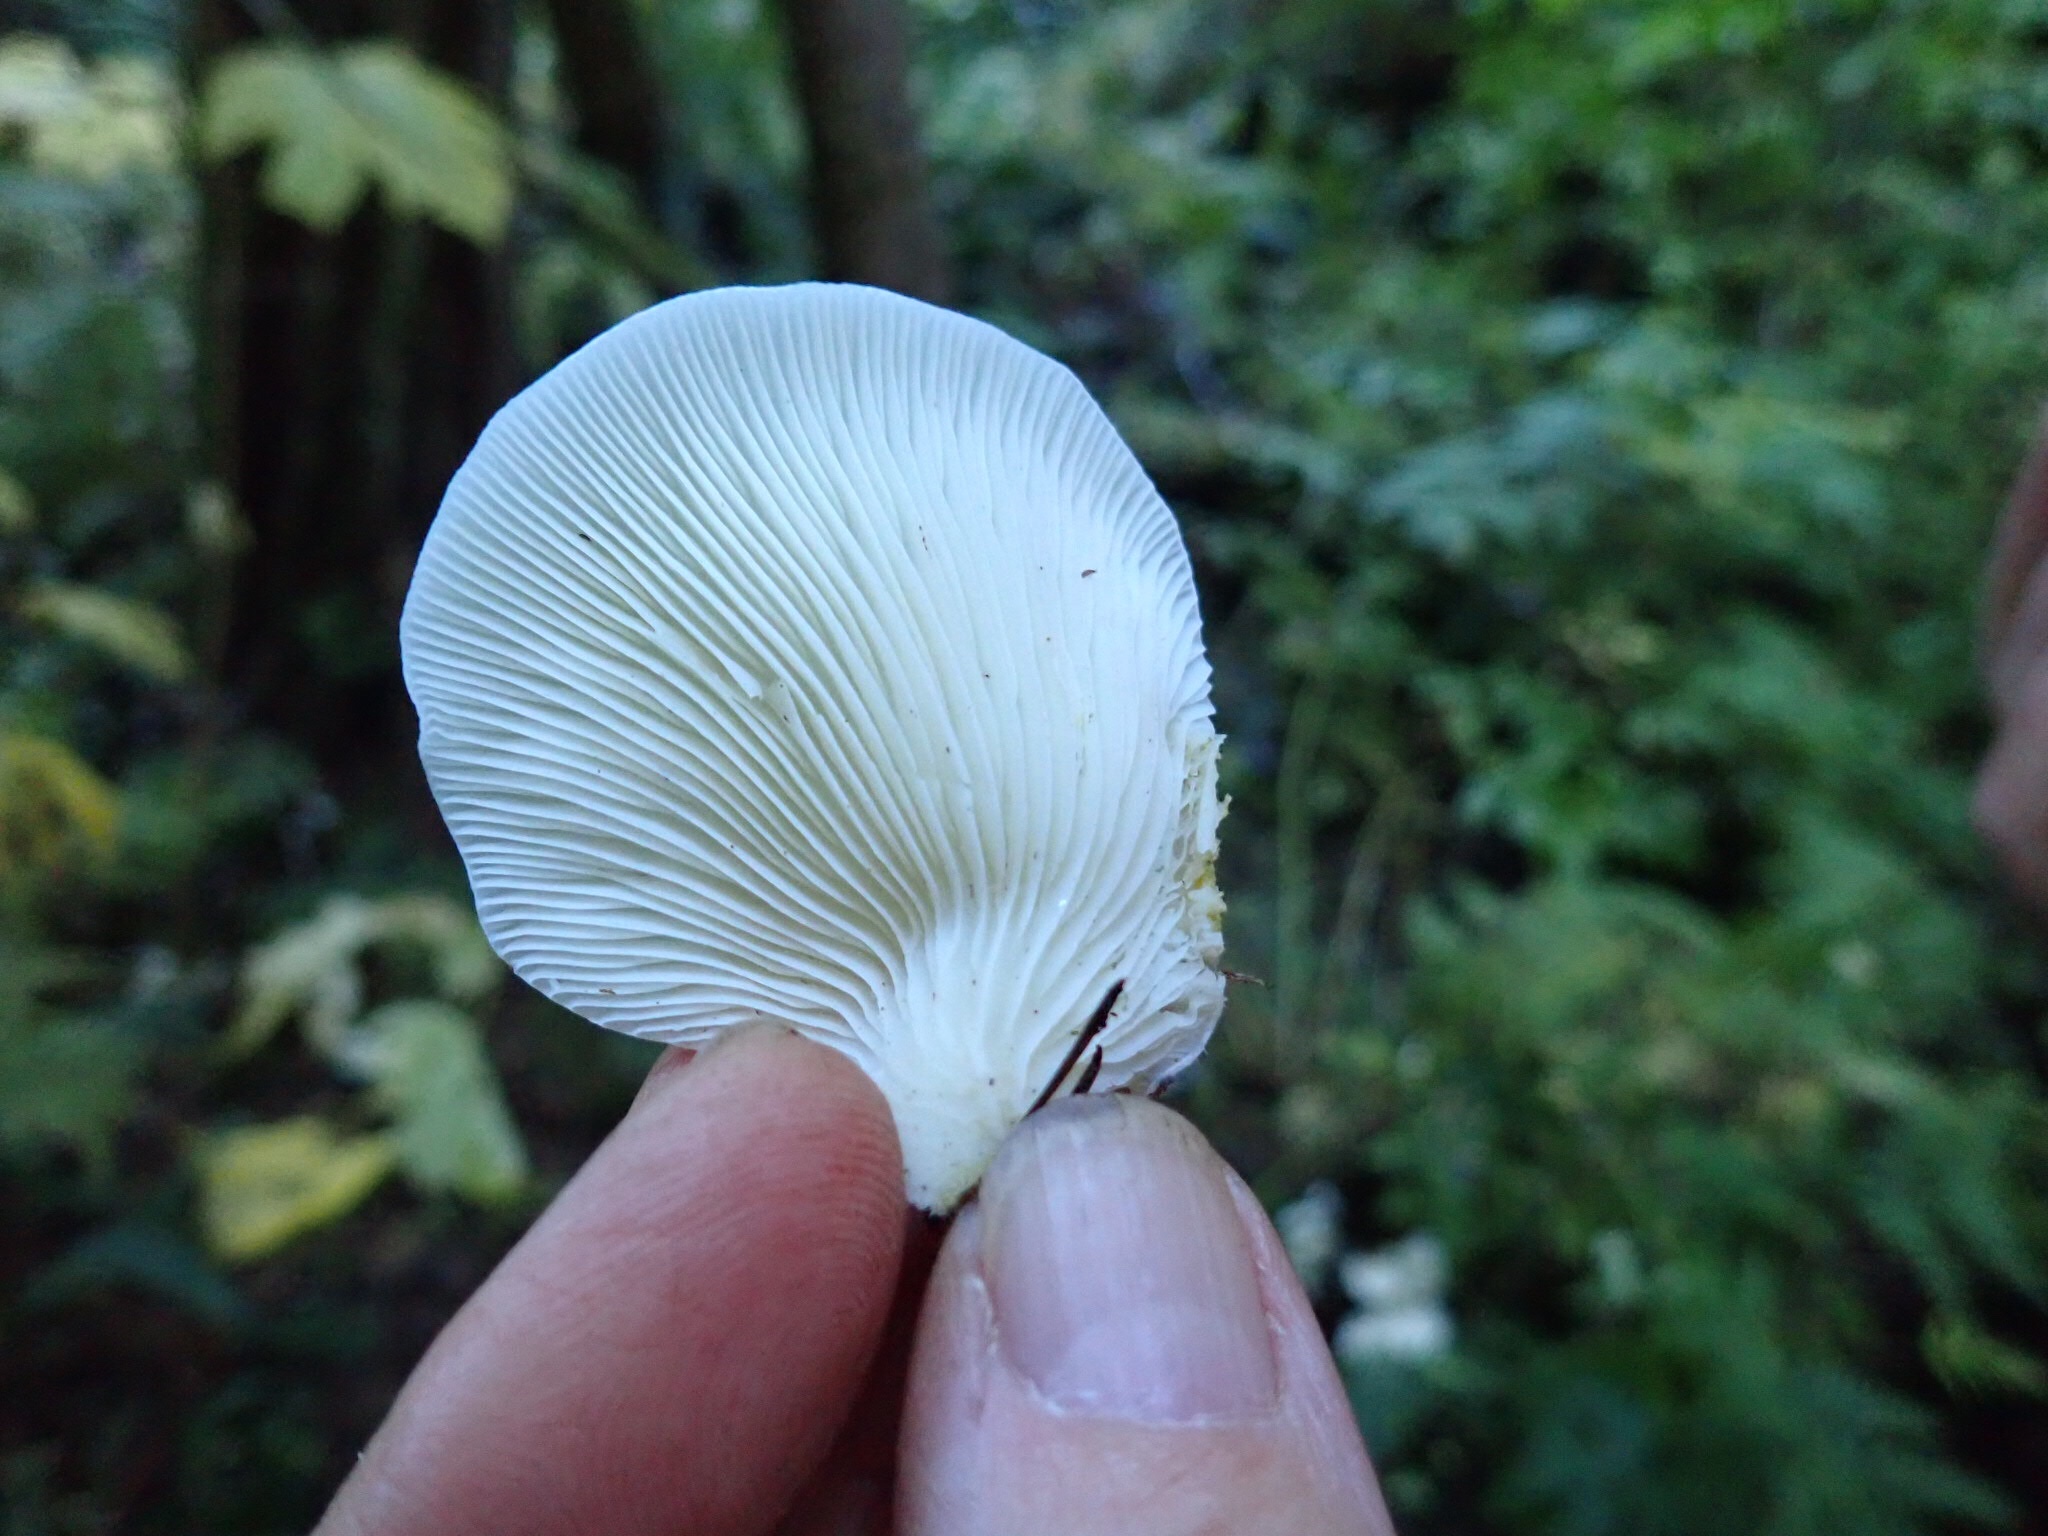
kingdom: Fungi
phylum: Basidiomycota
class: Agaricomycetes
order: Agaricales
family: Pleurotaceae
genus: Pleurotus
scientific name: Pleurotus ostreatus
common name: Oyster mushroom
